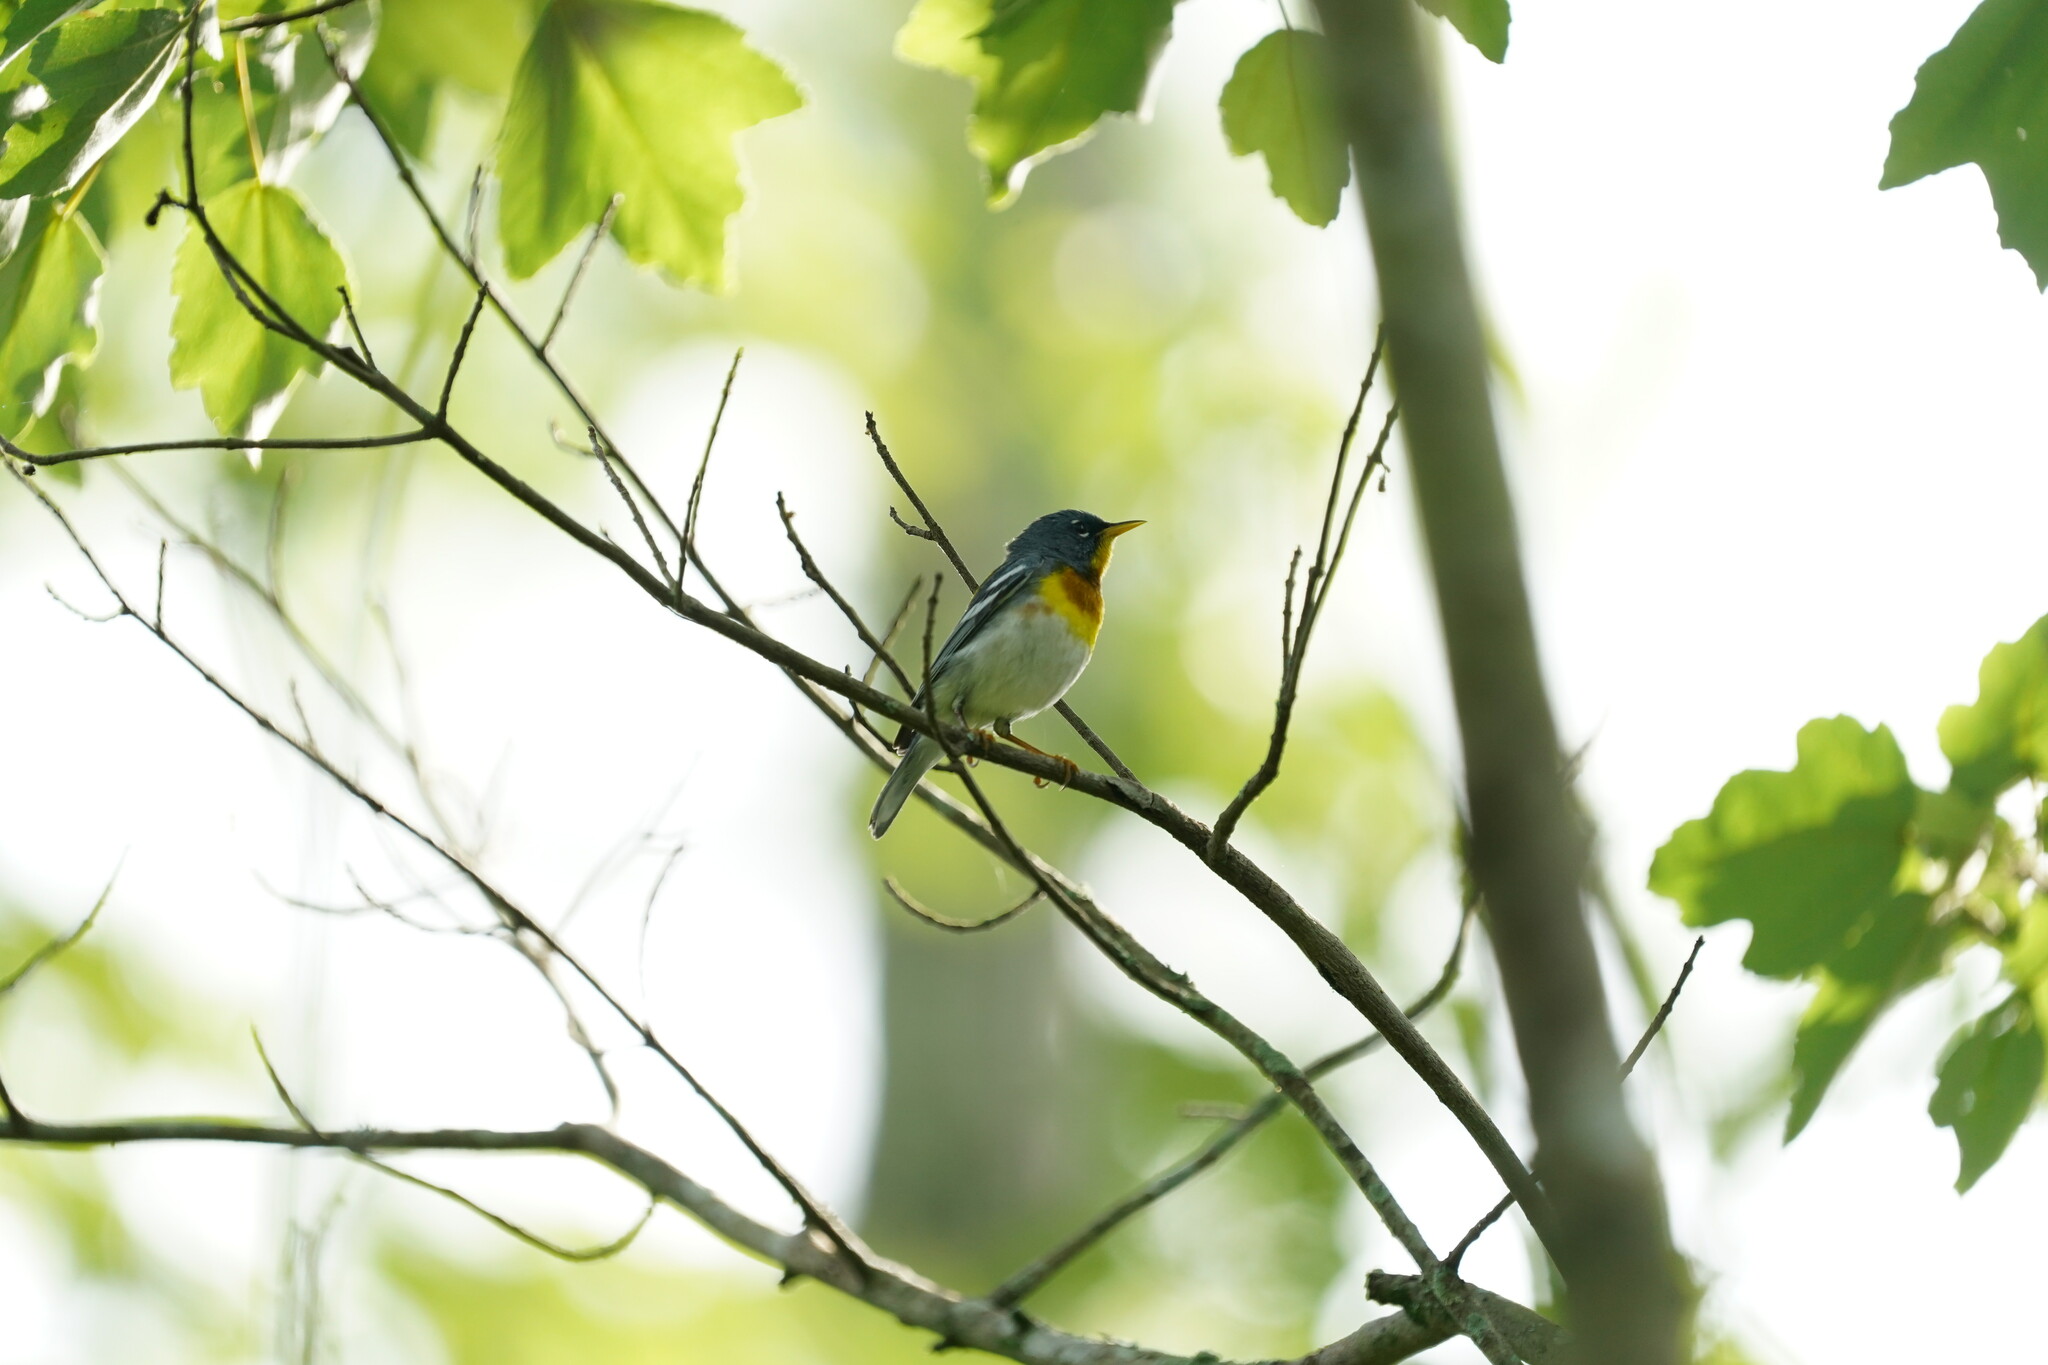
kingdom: Animalia
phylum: Chordata
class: Aves
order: Passeriformes
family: Parulidae
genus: Setophaga
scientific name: Setophaga americana
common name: Northern parula
